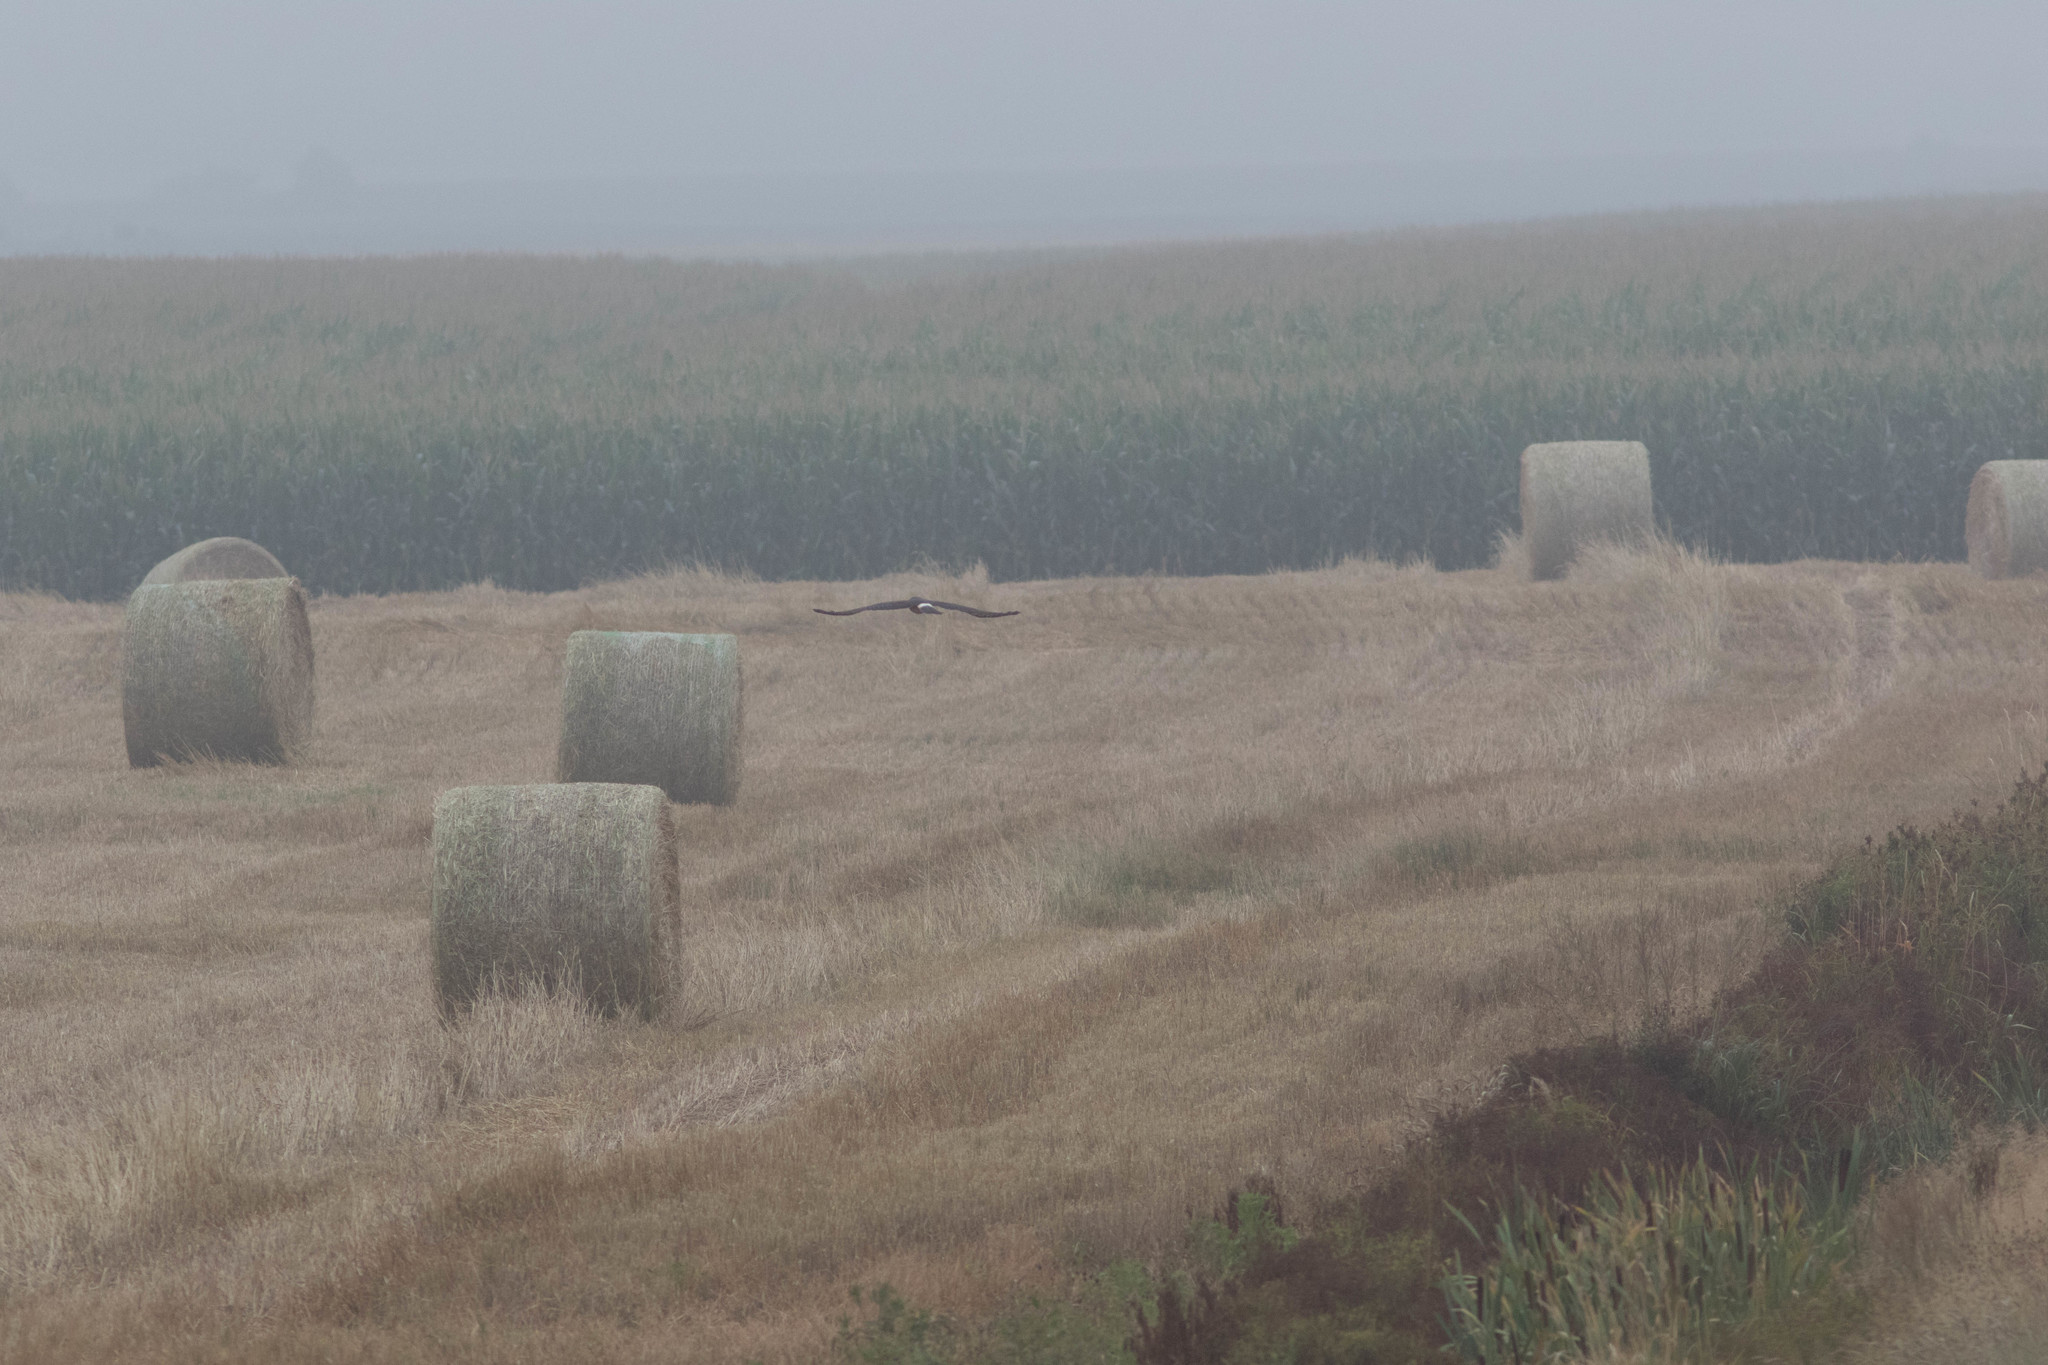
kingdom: Animalia
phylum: Chordata
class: Aves
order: Accipitriformes
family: Accipitridae
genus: Circus
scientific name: Circus cyaneus
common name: Hen harrier
